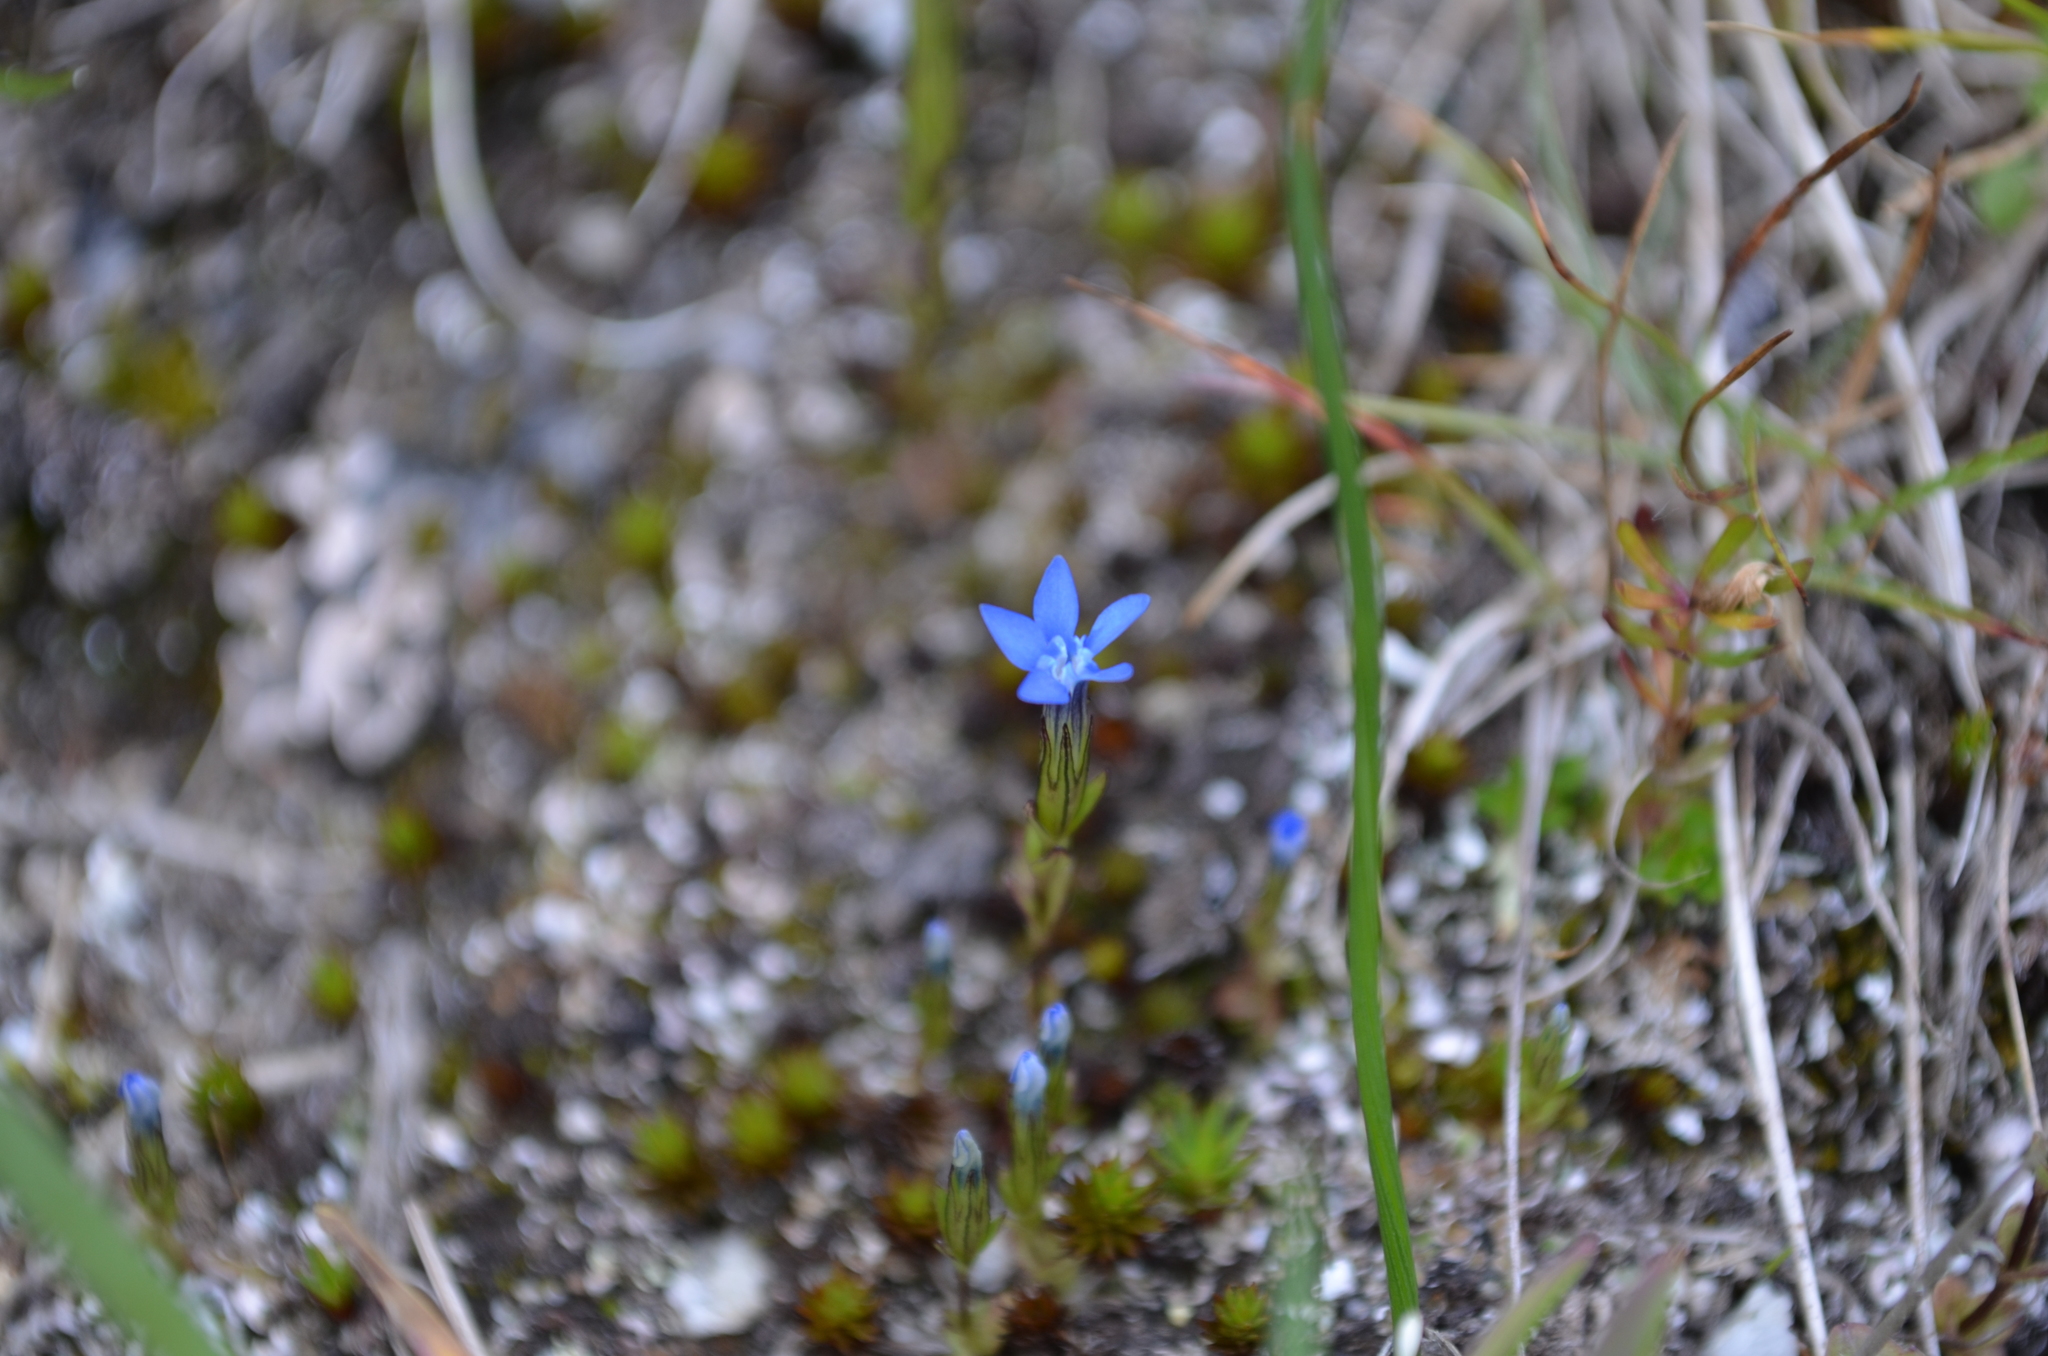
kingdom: Plantae
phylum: Tracheophyta
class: Magnoliopsida
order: Gentianales
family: Gentianaceae
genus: Gentiana
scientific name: Gentiana nivalis
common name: Alpine gentian
